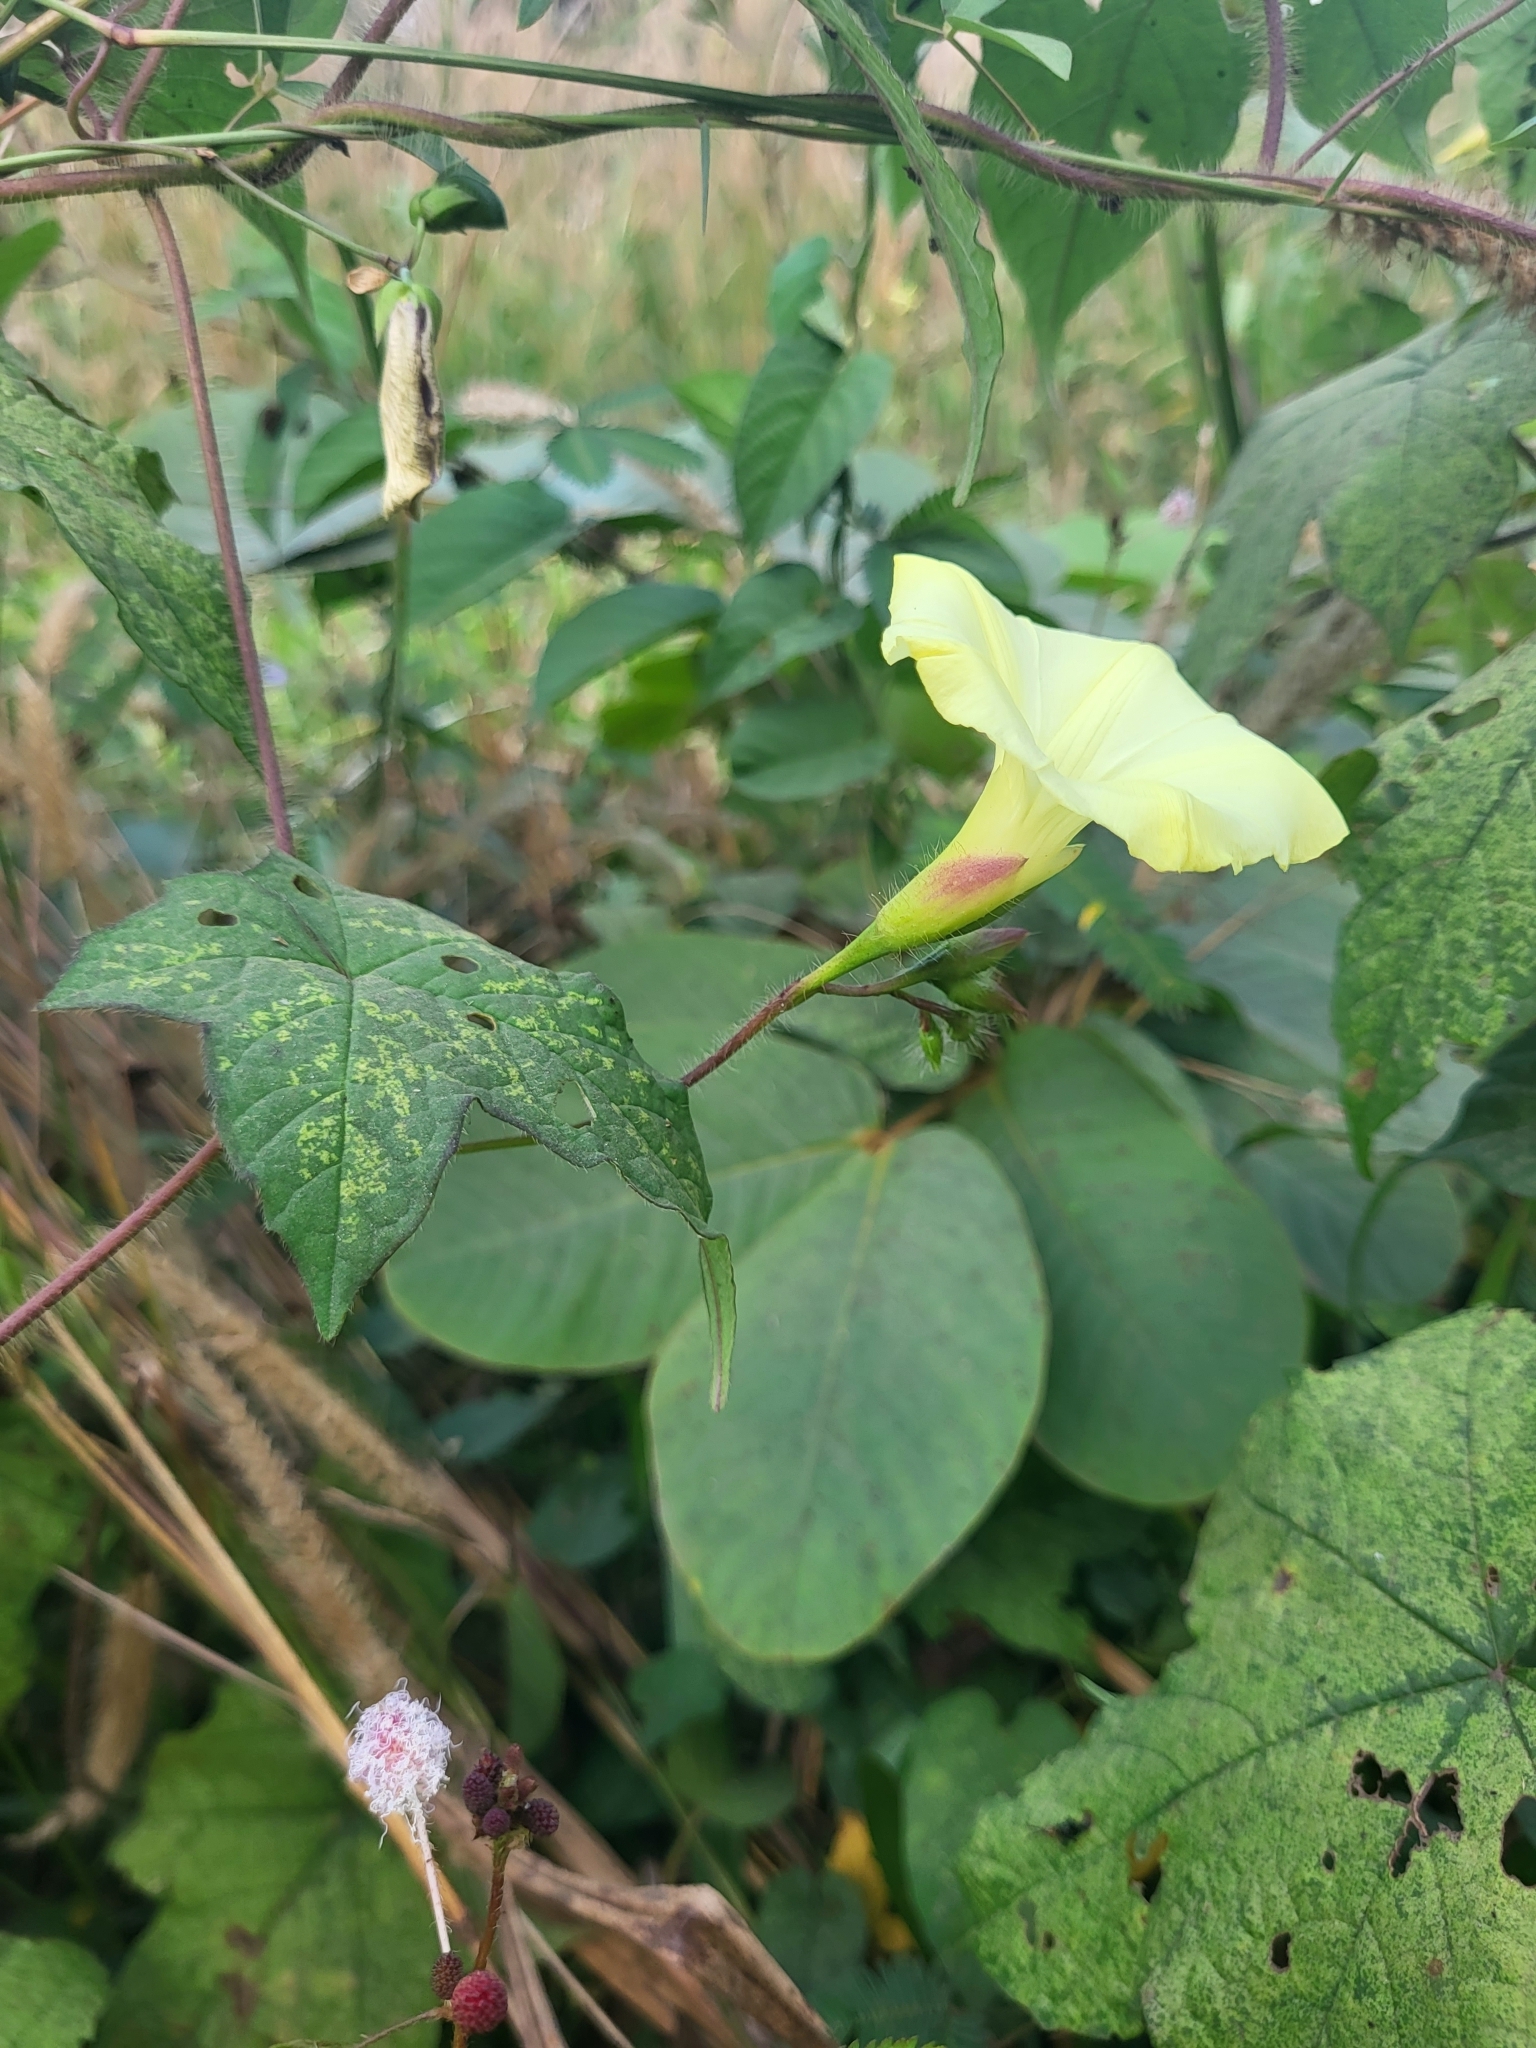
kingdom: Plantae
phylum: Tracheophyta
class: Magnoliopsida
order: Solanales
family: Convolvulaceae
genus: Distimake
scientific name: Distimake
